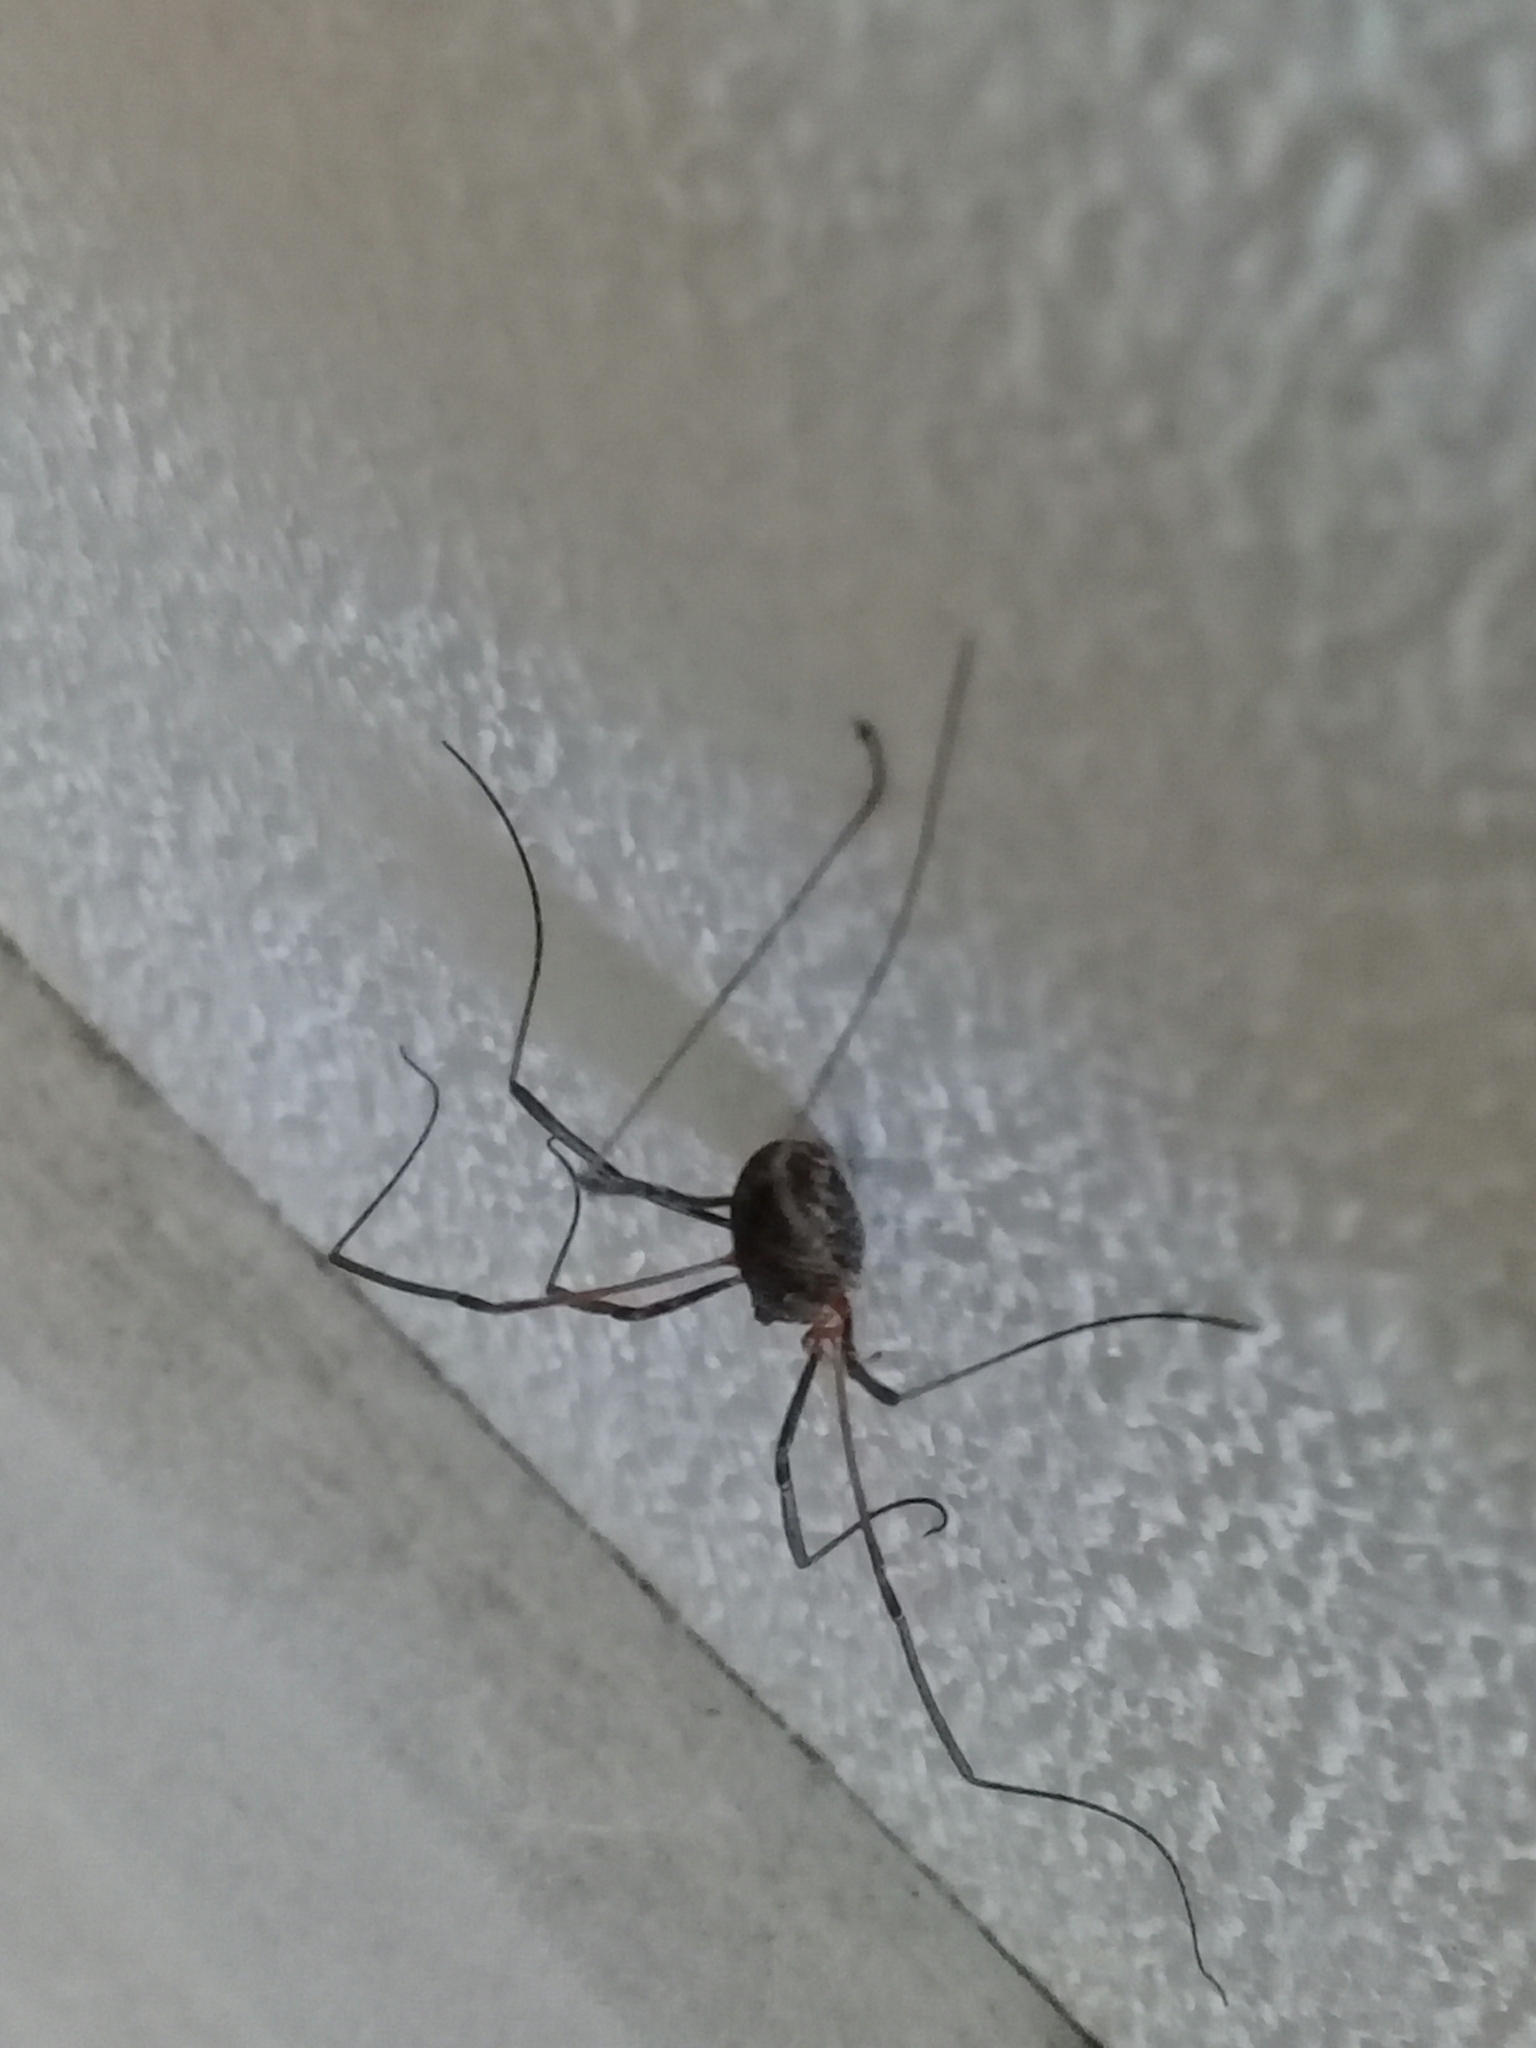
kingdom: Animalia
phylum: Arthropoda
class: Arachnida
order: Opiliones
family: Phalangiidae
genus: Phalangium
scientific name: Phalangium opilio
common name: Daddy longleg
